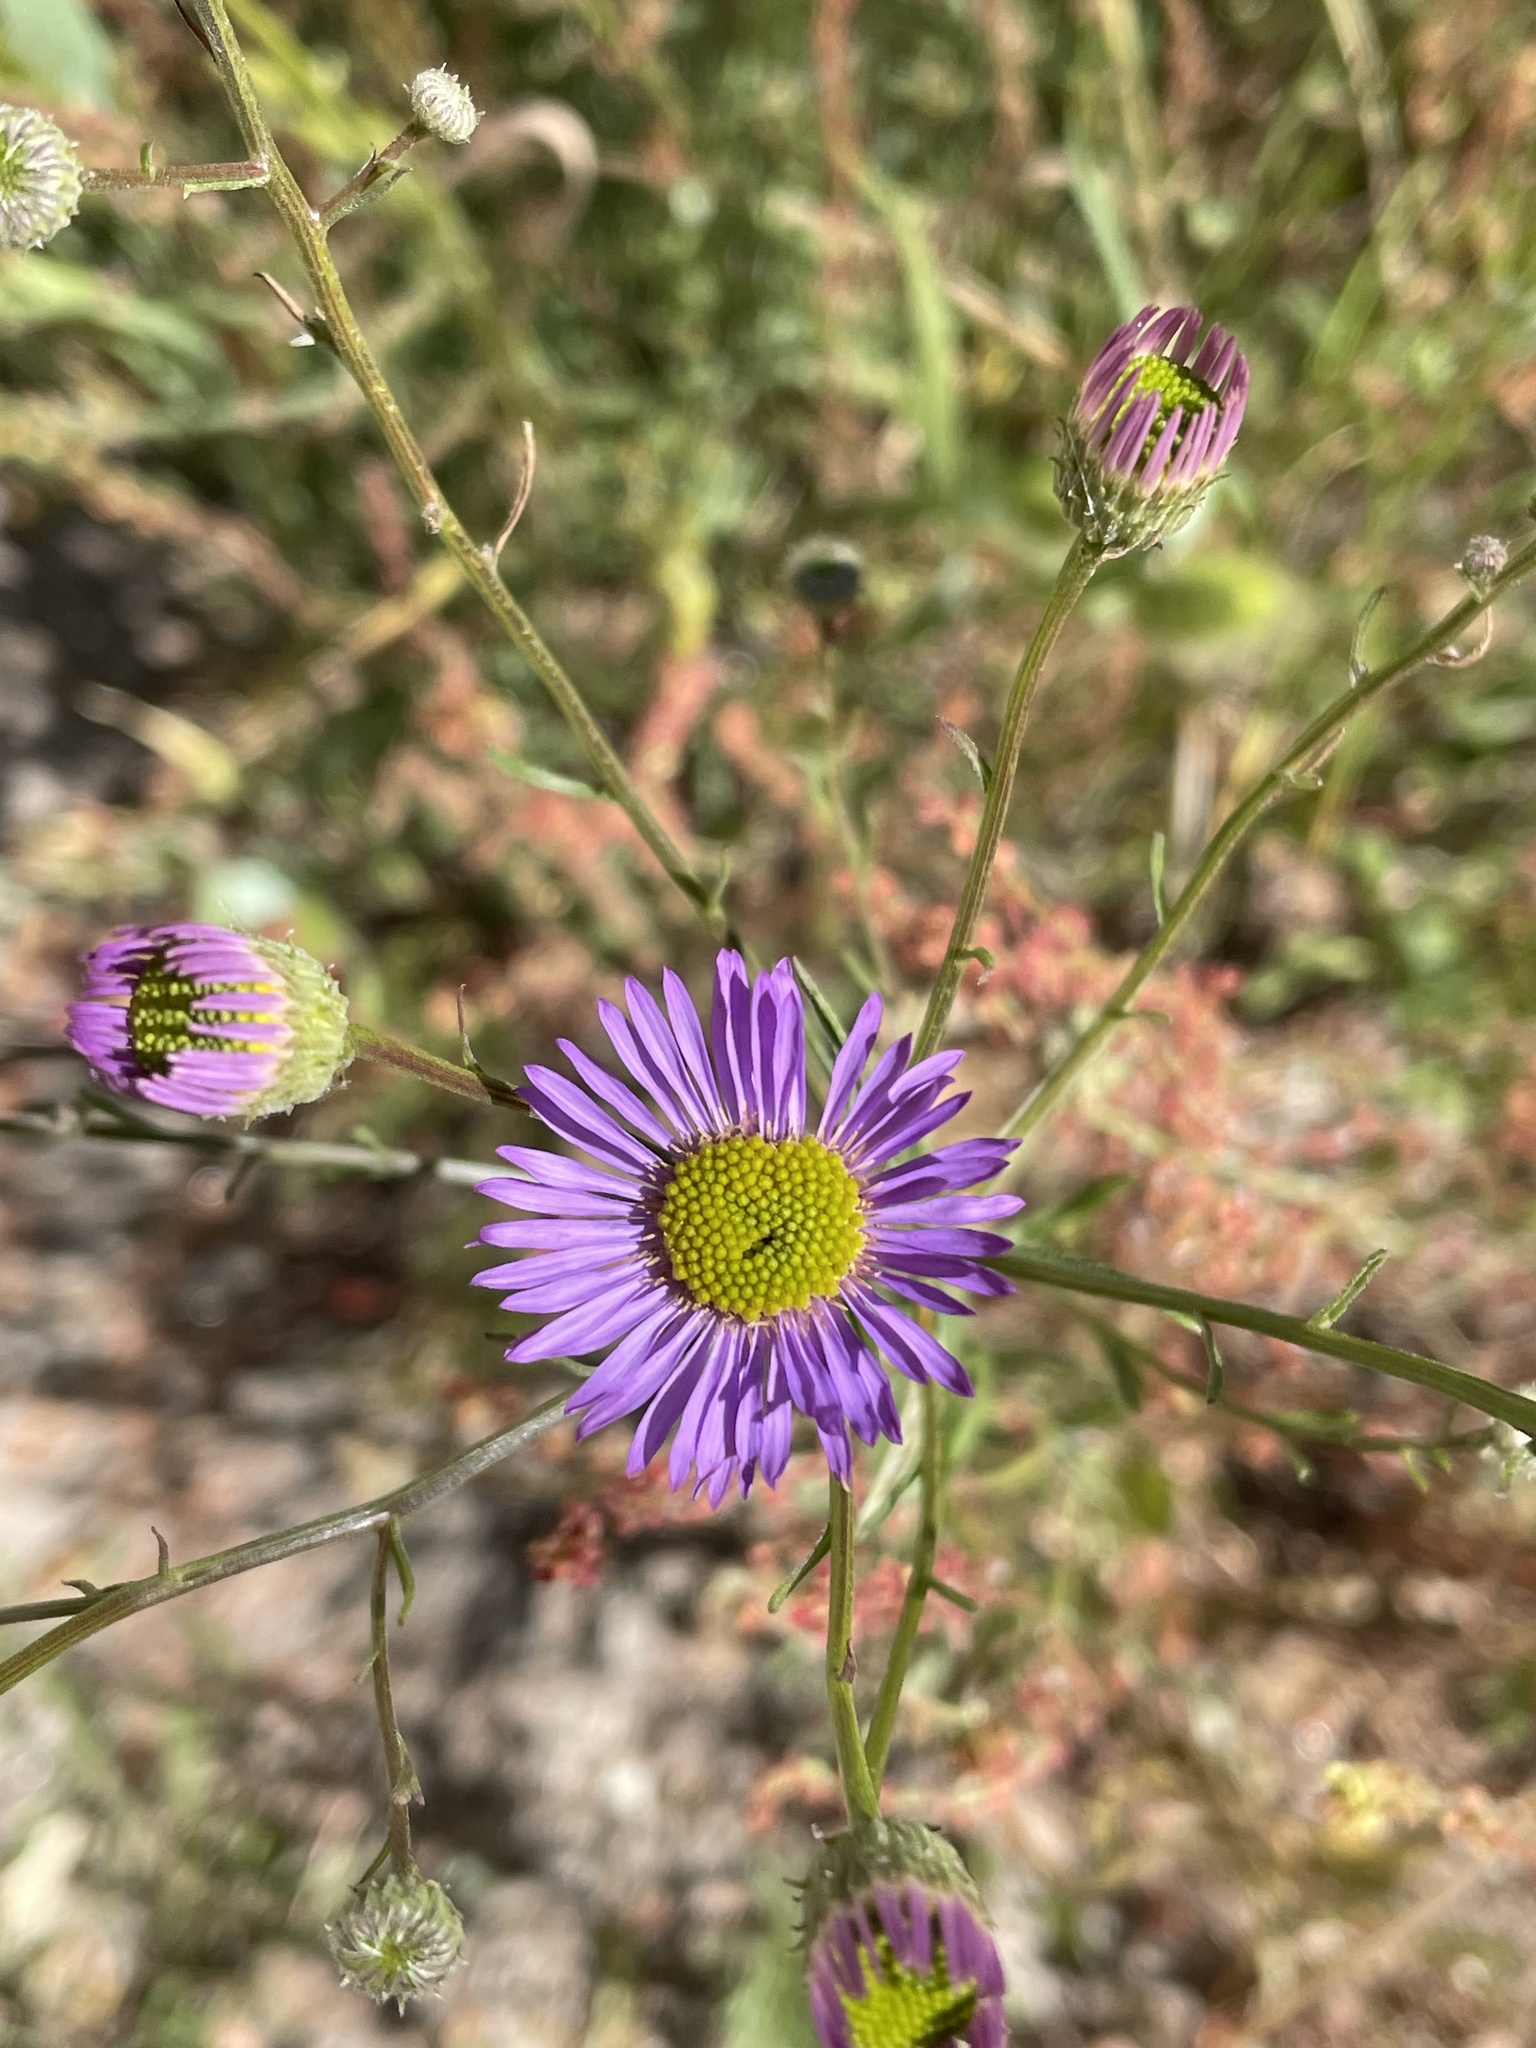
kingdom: Plantae
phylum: Tracheophyta
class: Magnoliopsida
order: Asterales
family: Asteraceae
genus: Erigeron
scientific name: Erigeron foliosus
